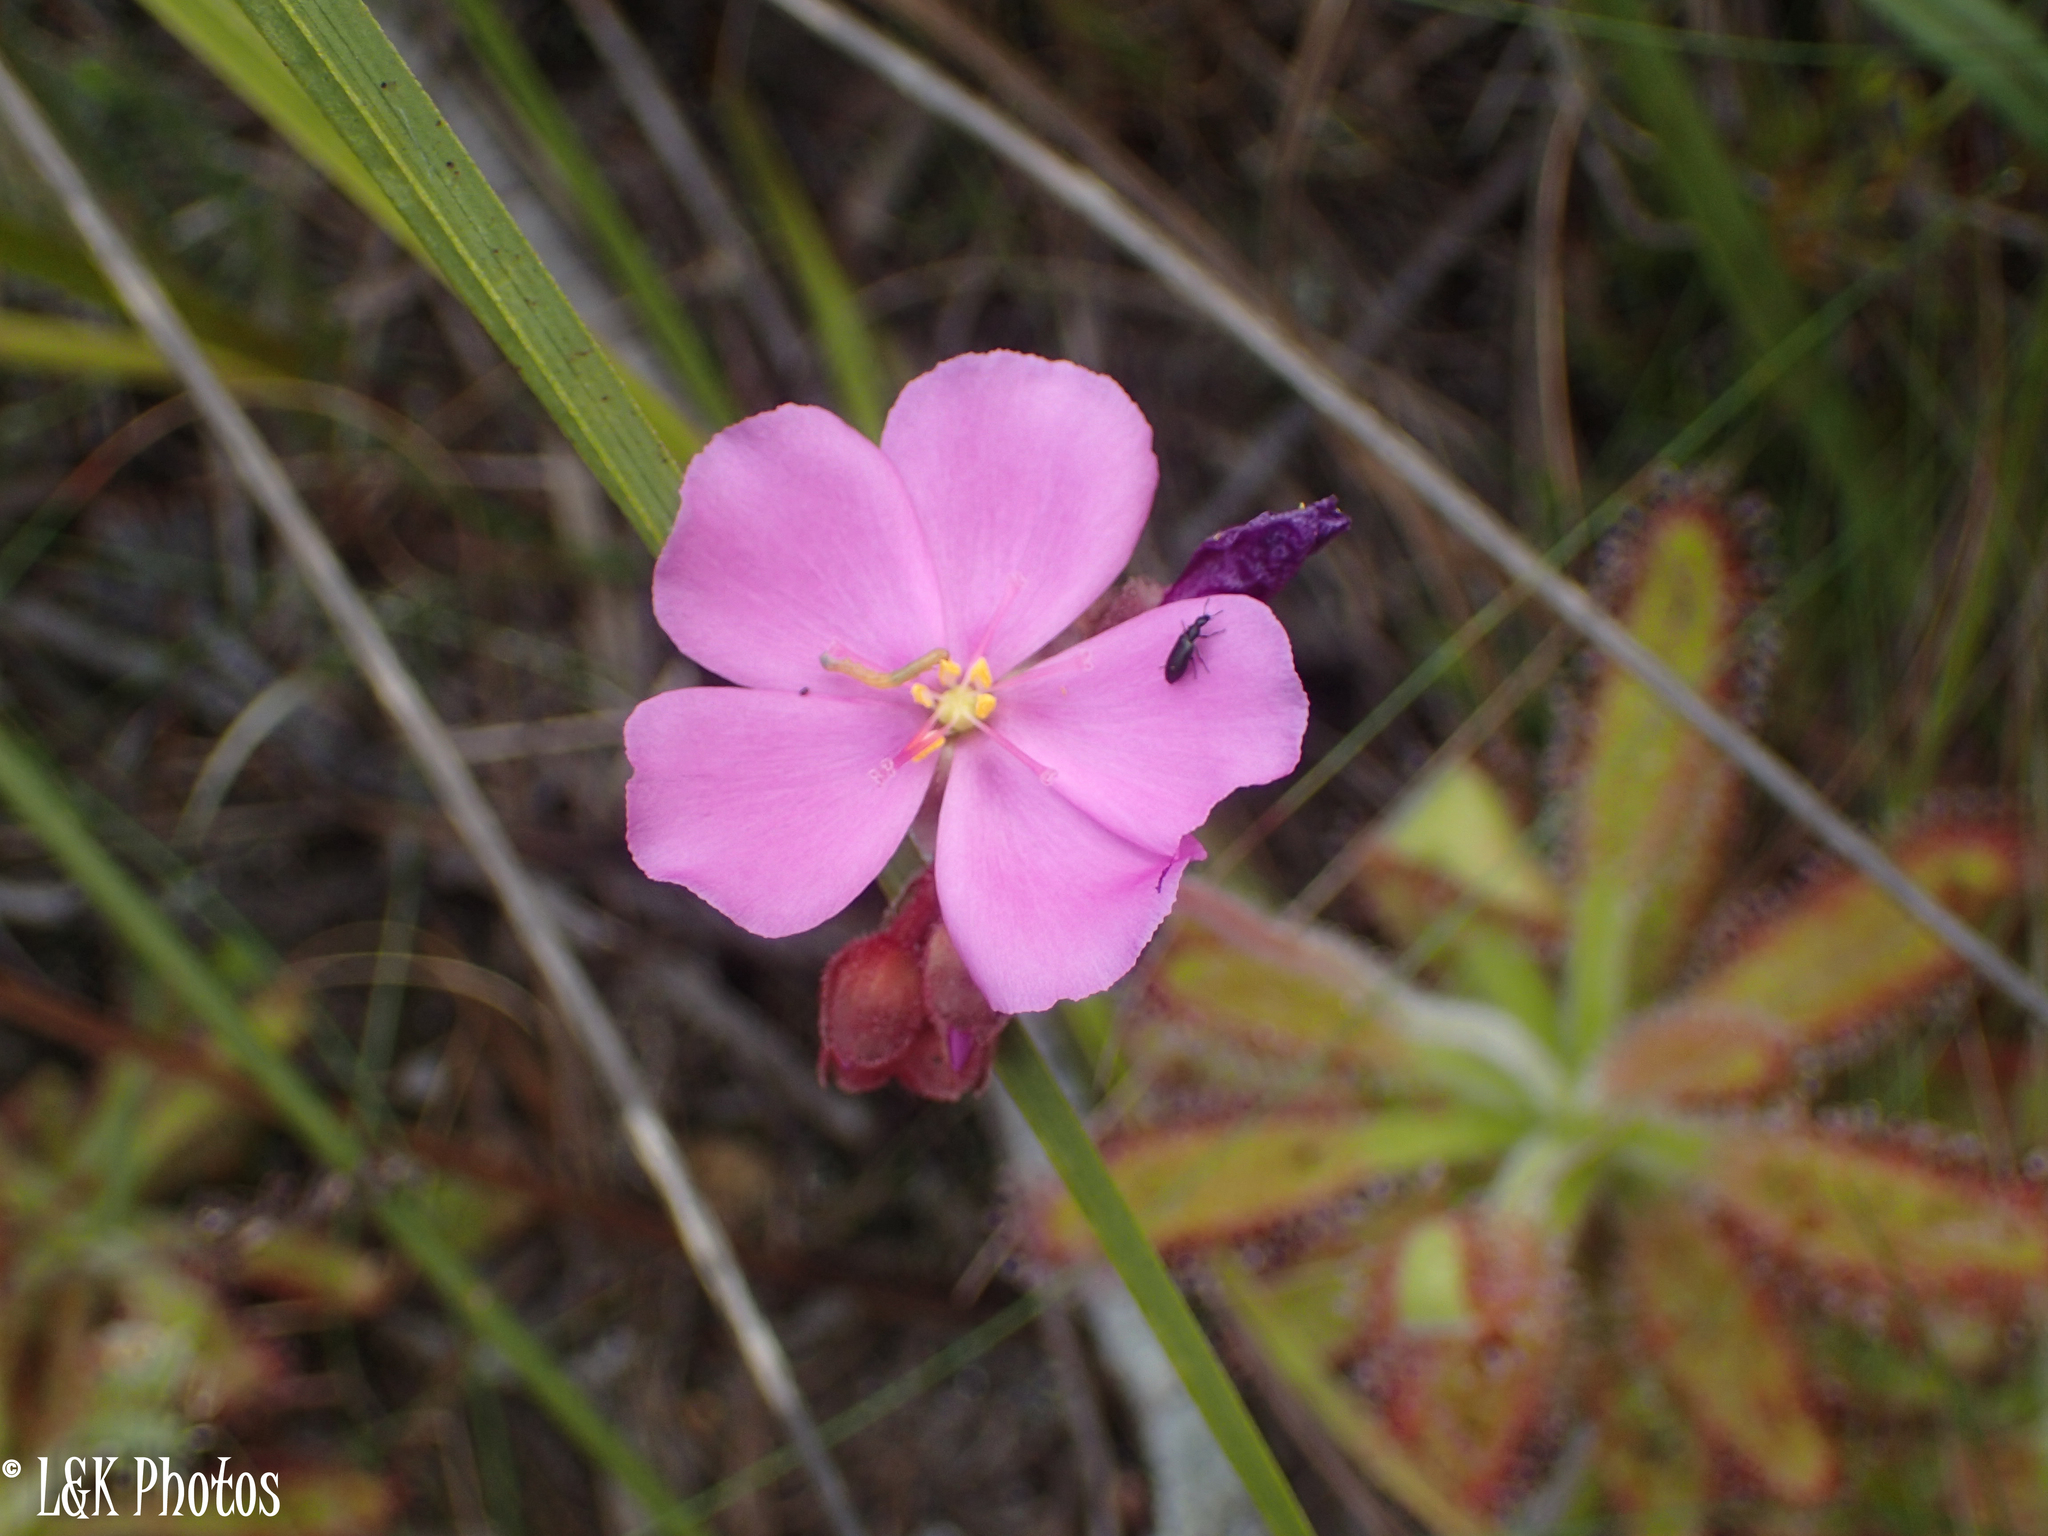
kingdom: Plantae
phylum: Tracheophyta
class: Magnoliopsida
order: Caryophyllales
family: Droseraceae
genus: Drosera
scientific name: Drosera hilaris
